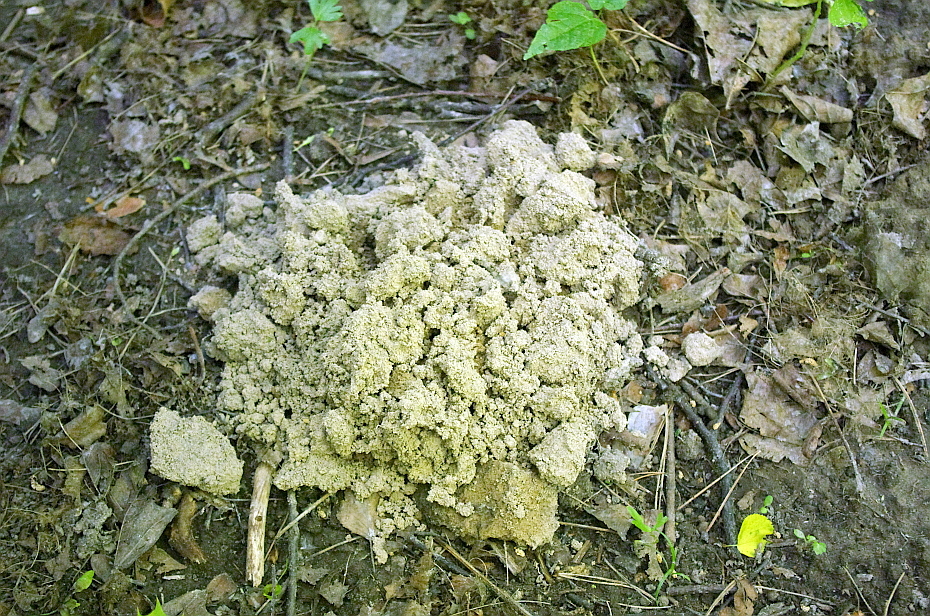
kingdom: Animalia
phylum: Chordata
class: Mammalia
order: Soricomorpha
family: Talpidae
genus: Talpa
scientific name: Talpa europaea
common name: European mole
